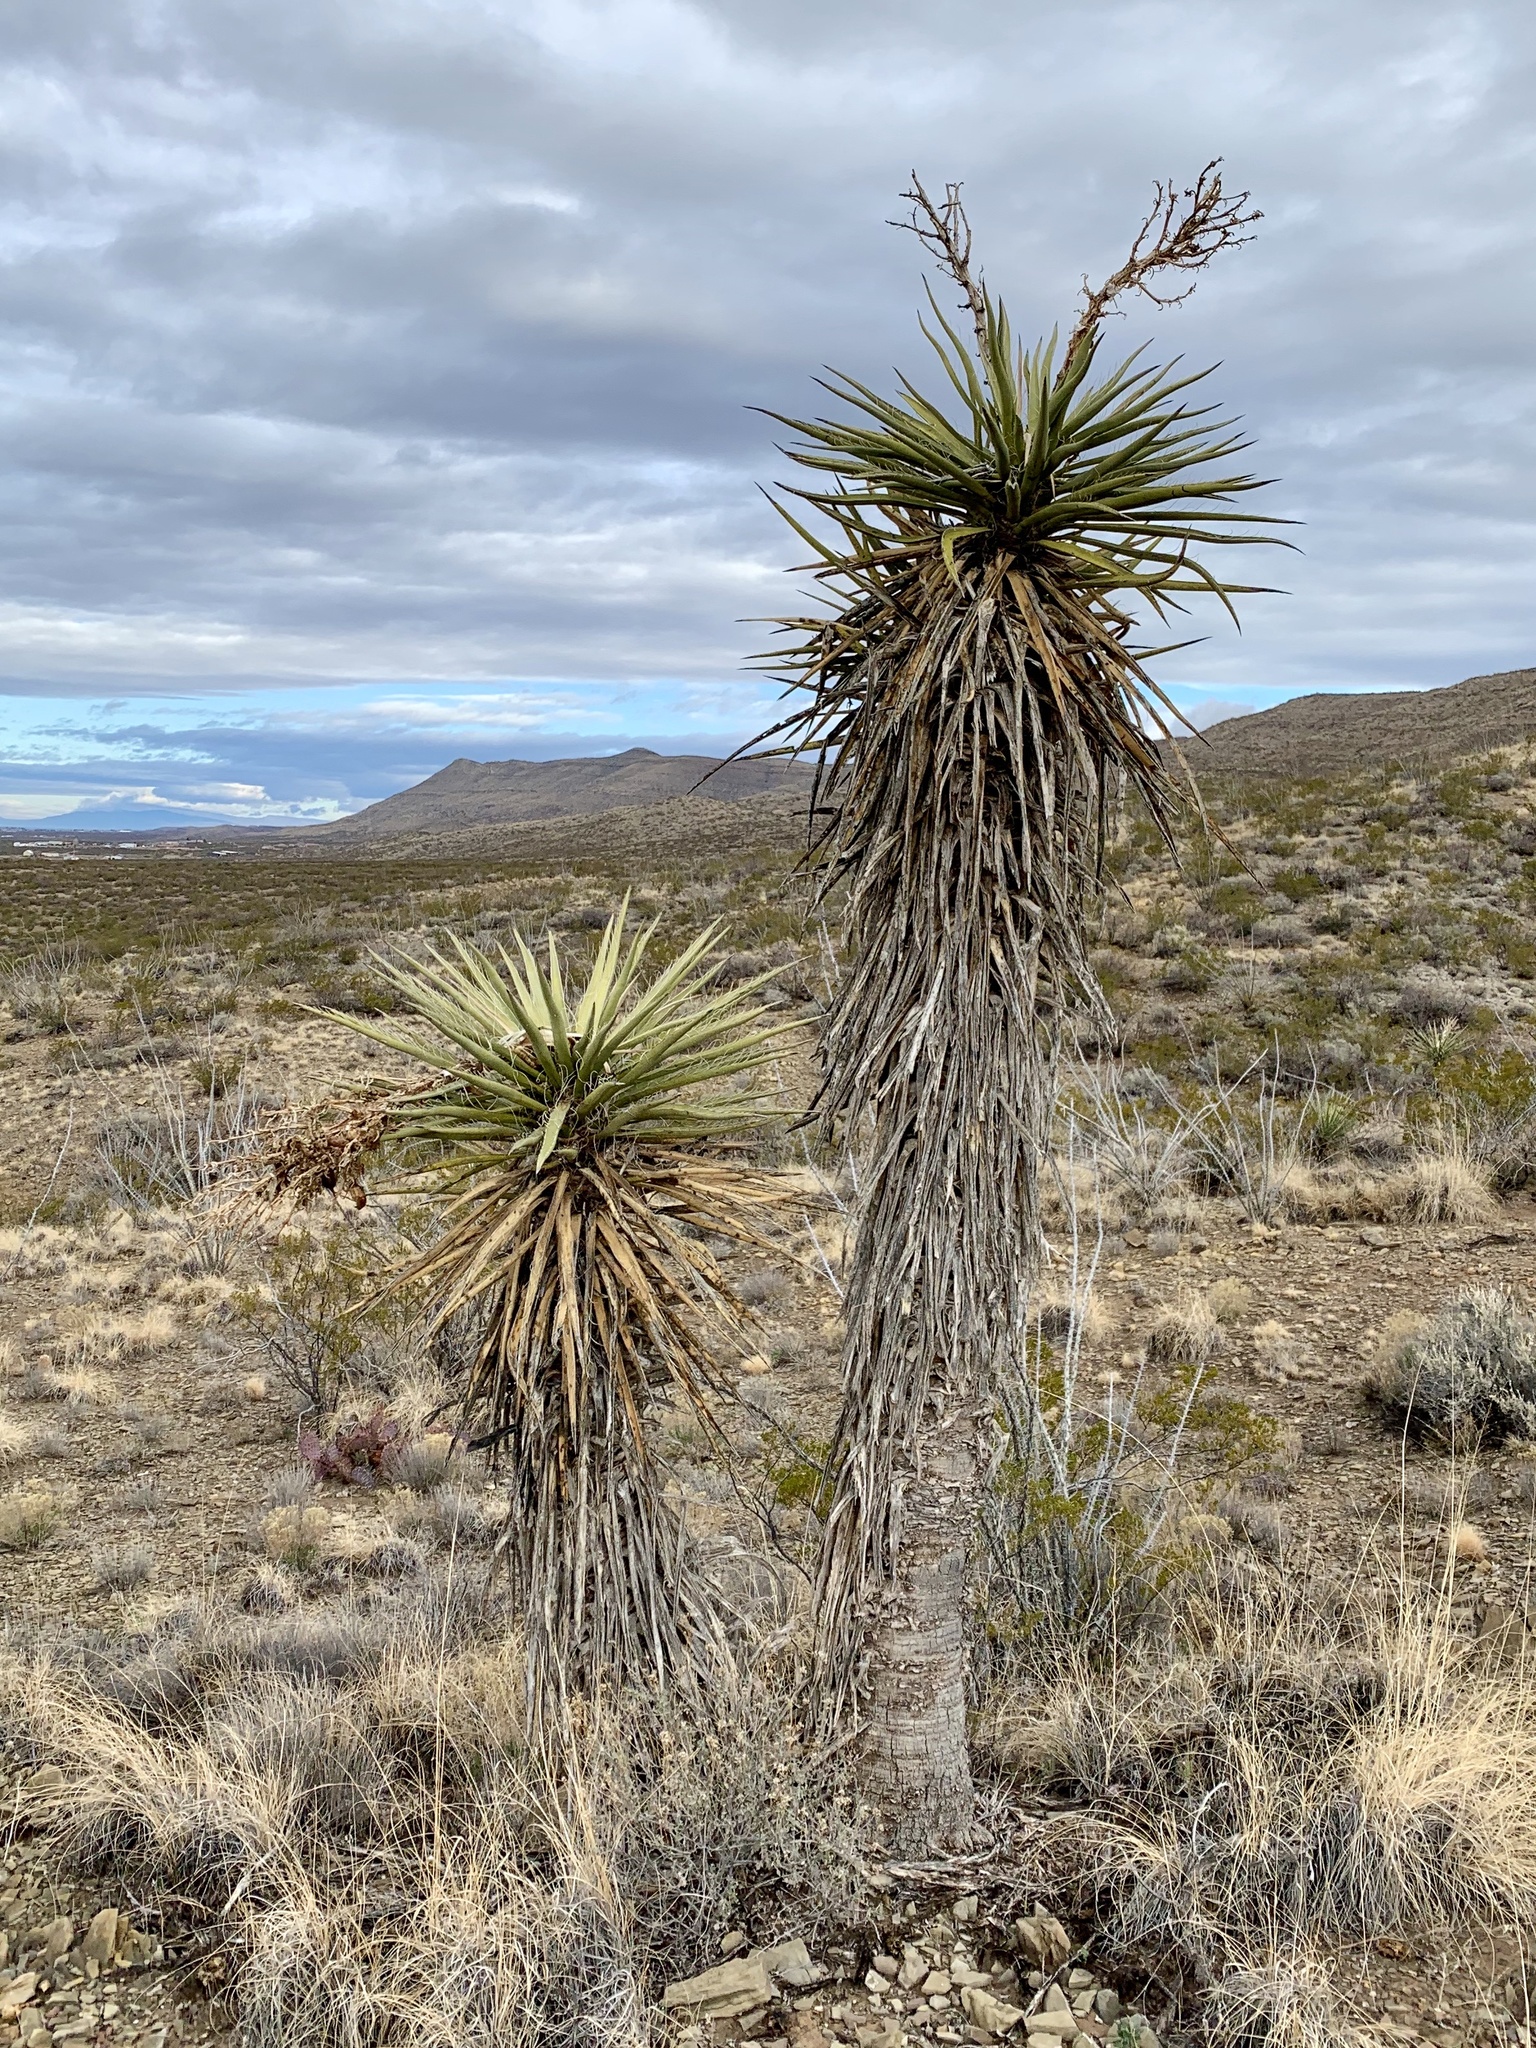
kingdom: Plantae
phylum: Tracheophyta
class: Liliopsida
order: Asparagales
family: Asparagaceae
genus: Yucca
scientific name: Yucca treculiana
